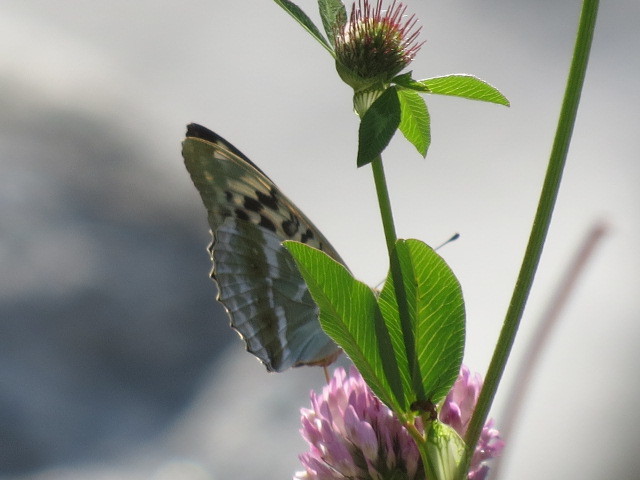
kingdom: Animalia
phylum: Arthropoda
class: Insecta
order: Lepidoptera
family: Nymphalidae
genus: Argynnis
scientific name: Argynnis paphia
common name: Silver-washed fritillary
